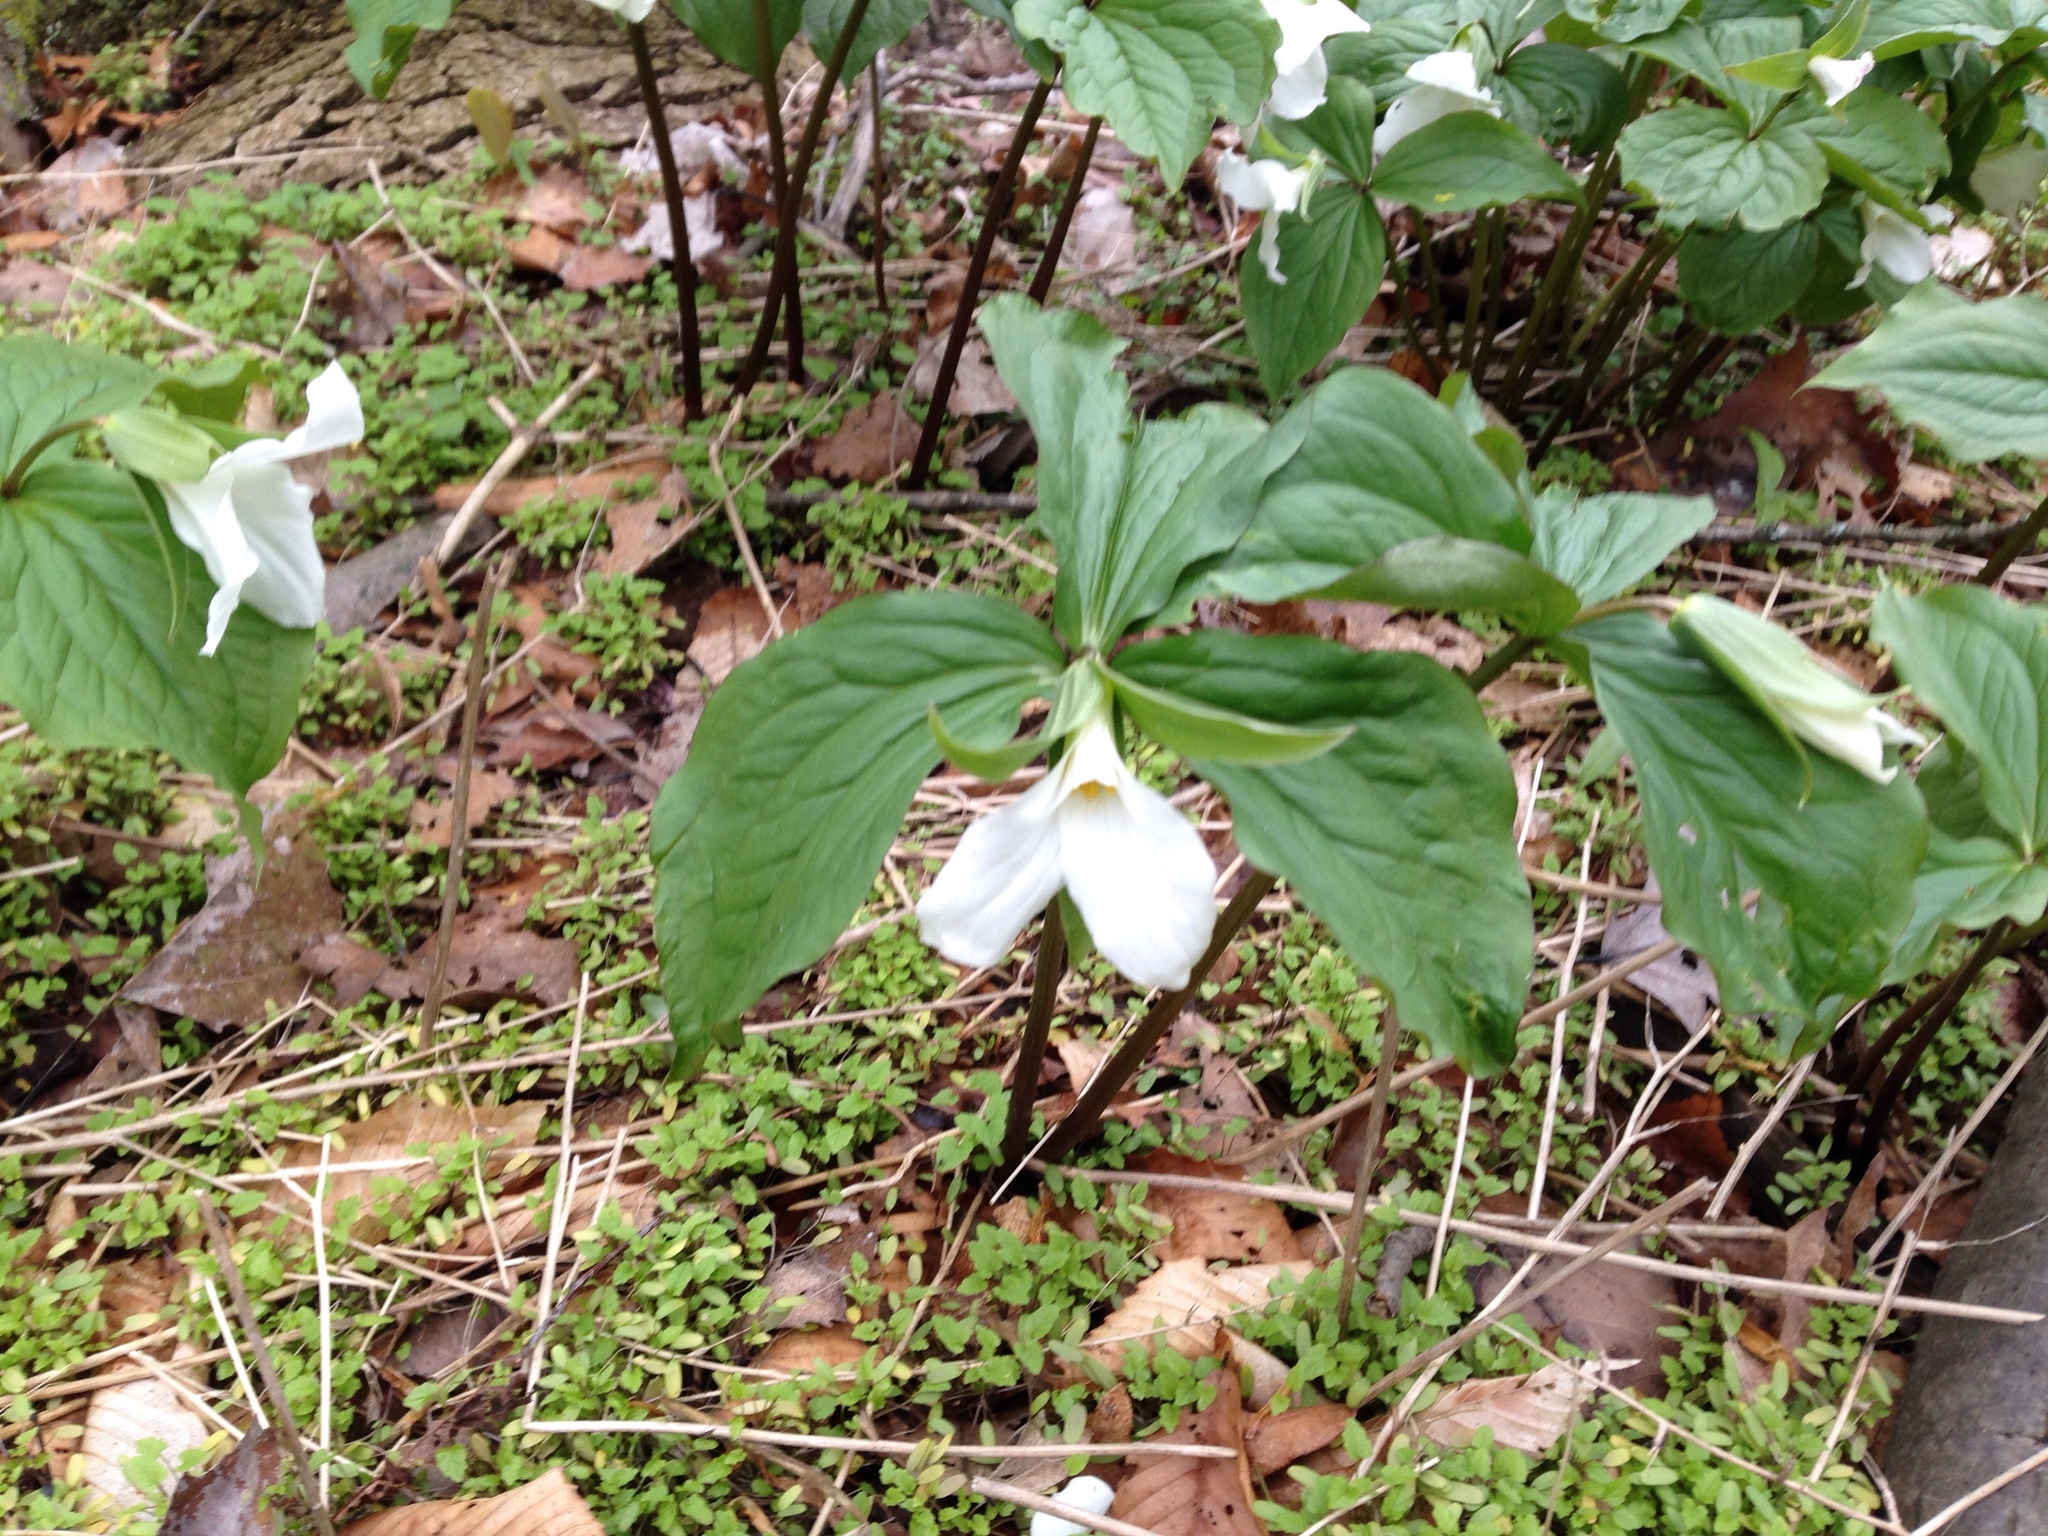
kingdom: Plantae
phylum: Tracheophyta
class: Liliopsida
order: Liliales
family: Melanthiaceae
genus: Trillium
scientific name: Trillium grandiflorum
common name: Great white trillium
